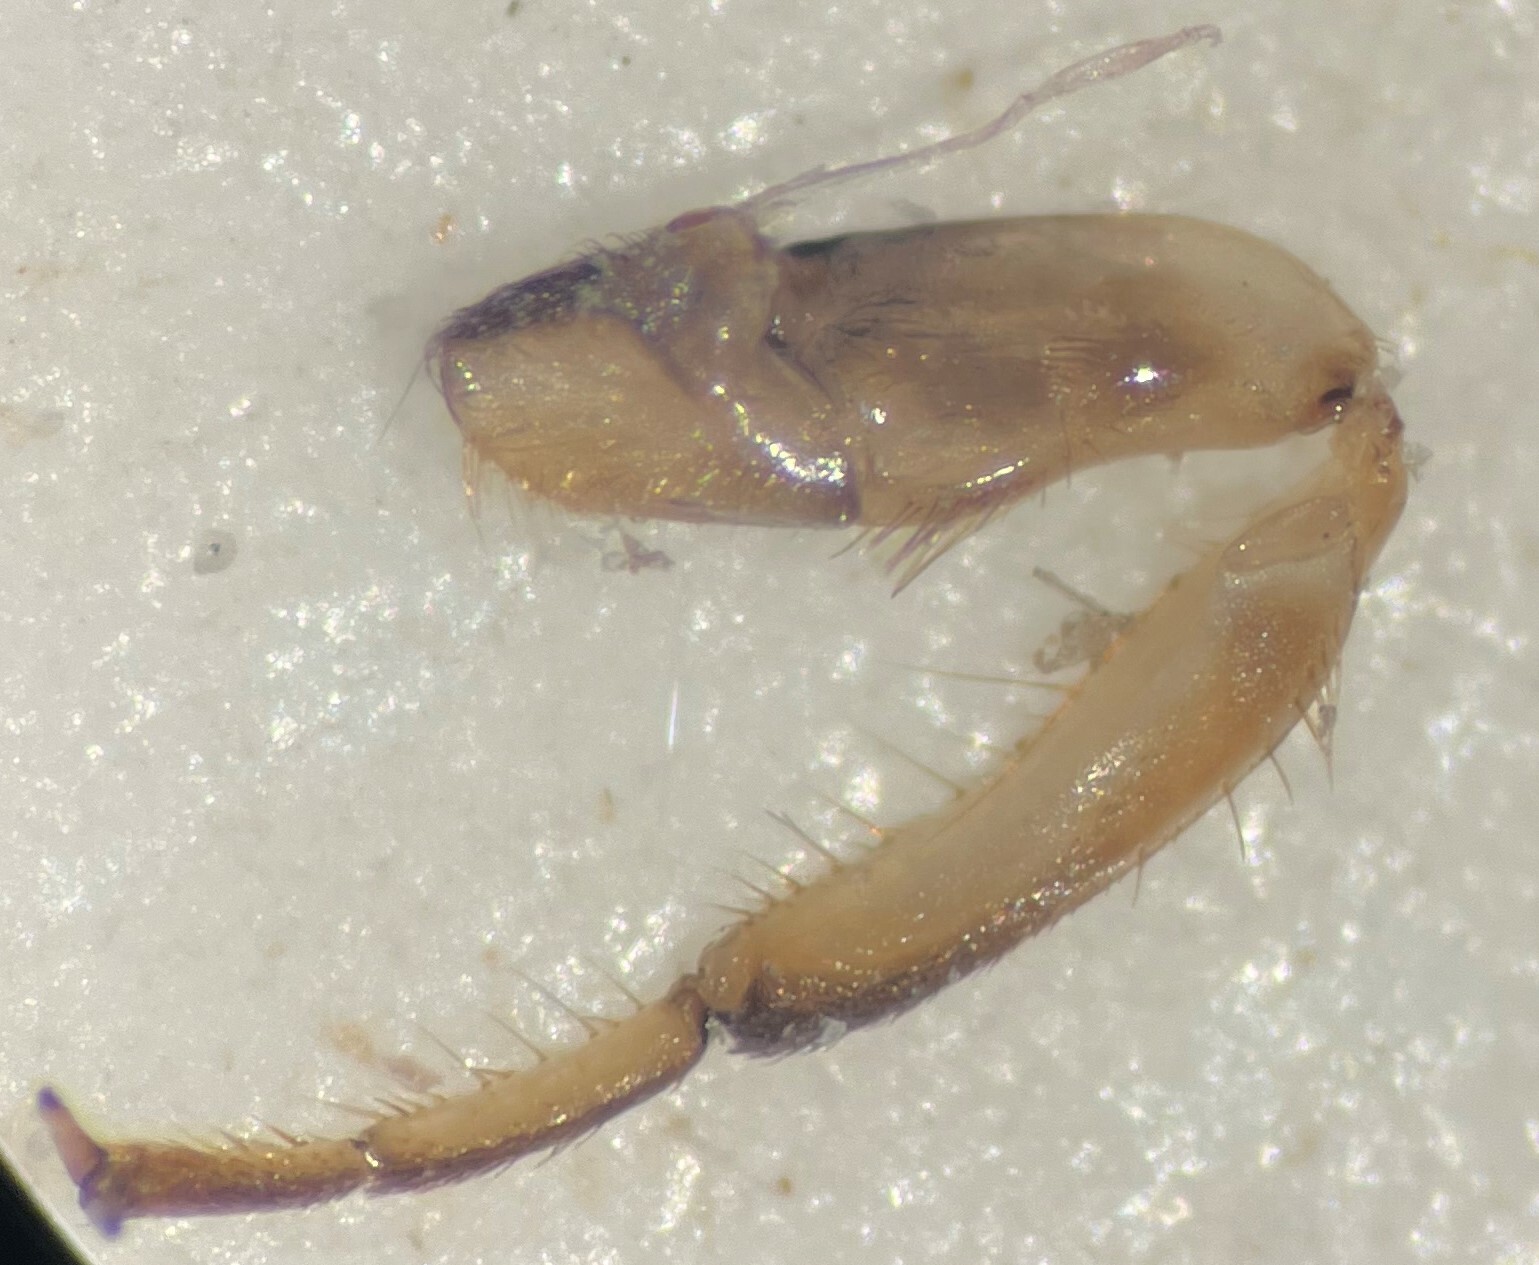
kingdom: Animalia
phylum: Arthropoda
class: Insecta
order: Hemiptera
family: Notonectidae
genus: Buenoa
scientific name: Buenoa confusa
